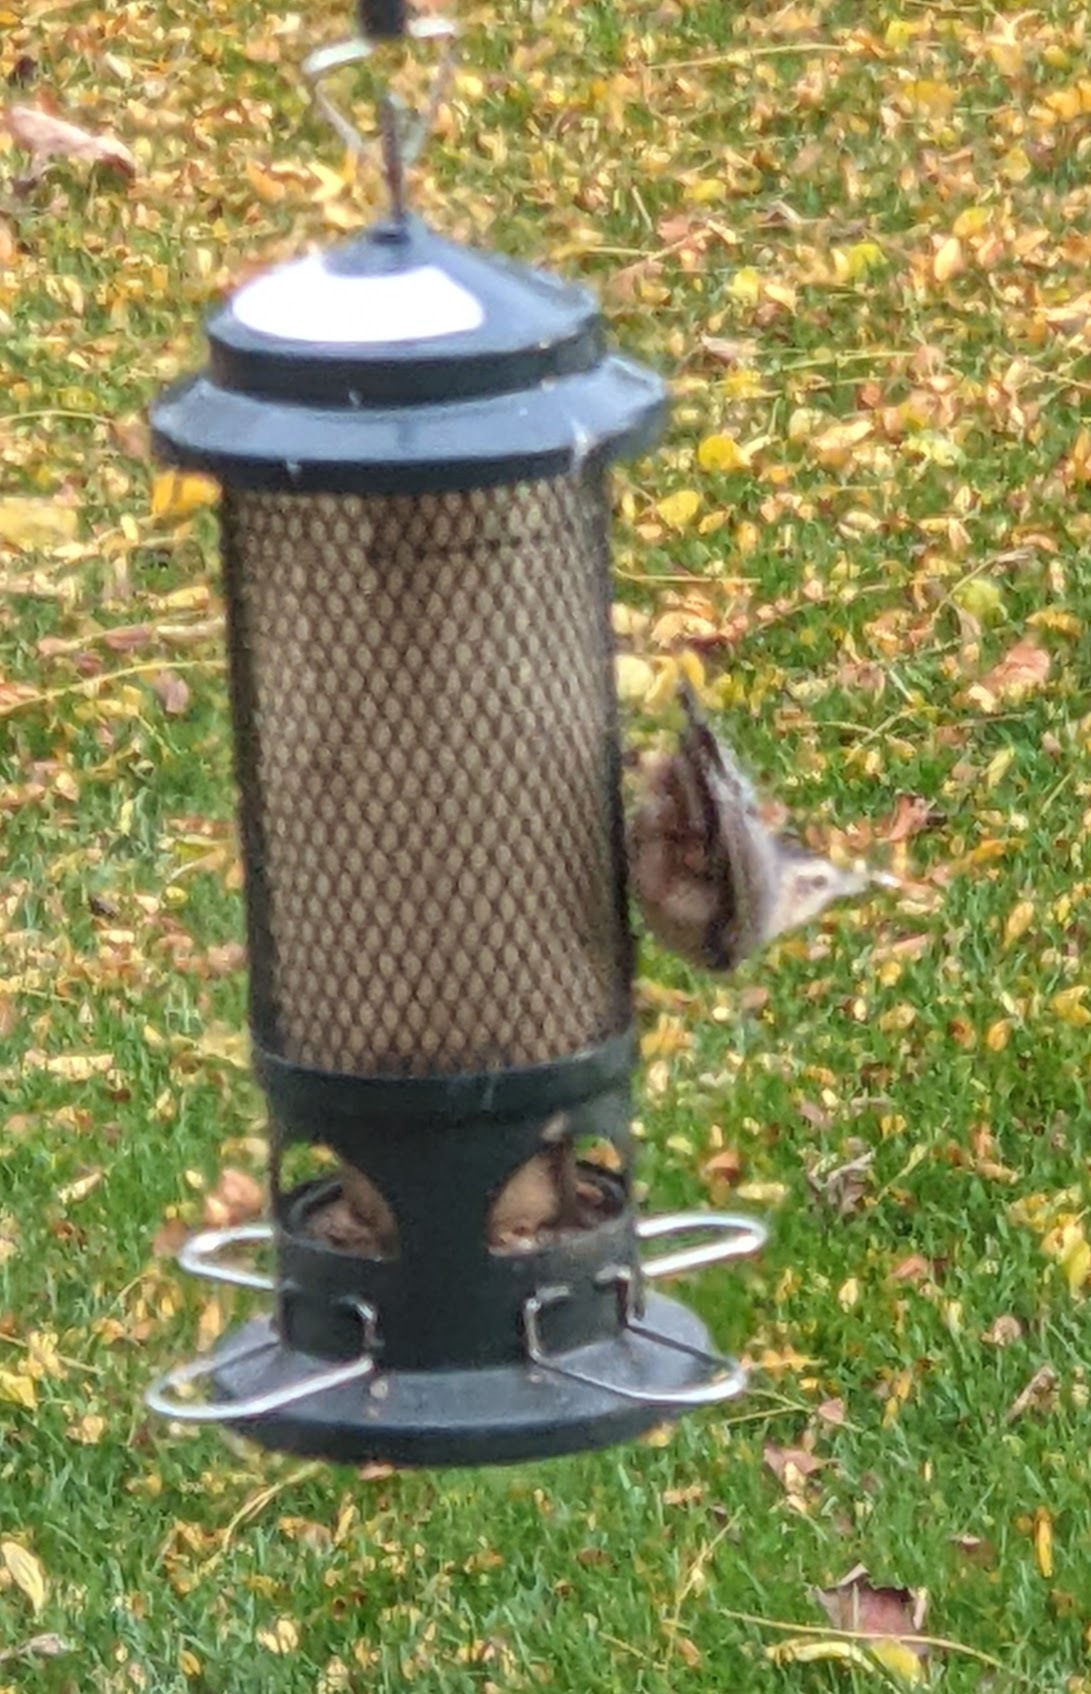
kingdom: Animalia
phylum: Chordata
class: Aves
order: Passeriformes
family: Sittidae
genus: Sitta
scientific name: Sitta carolinensis
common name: White-breasted nuthatch
